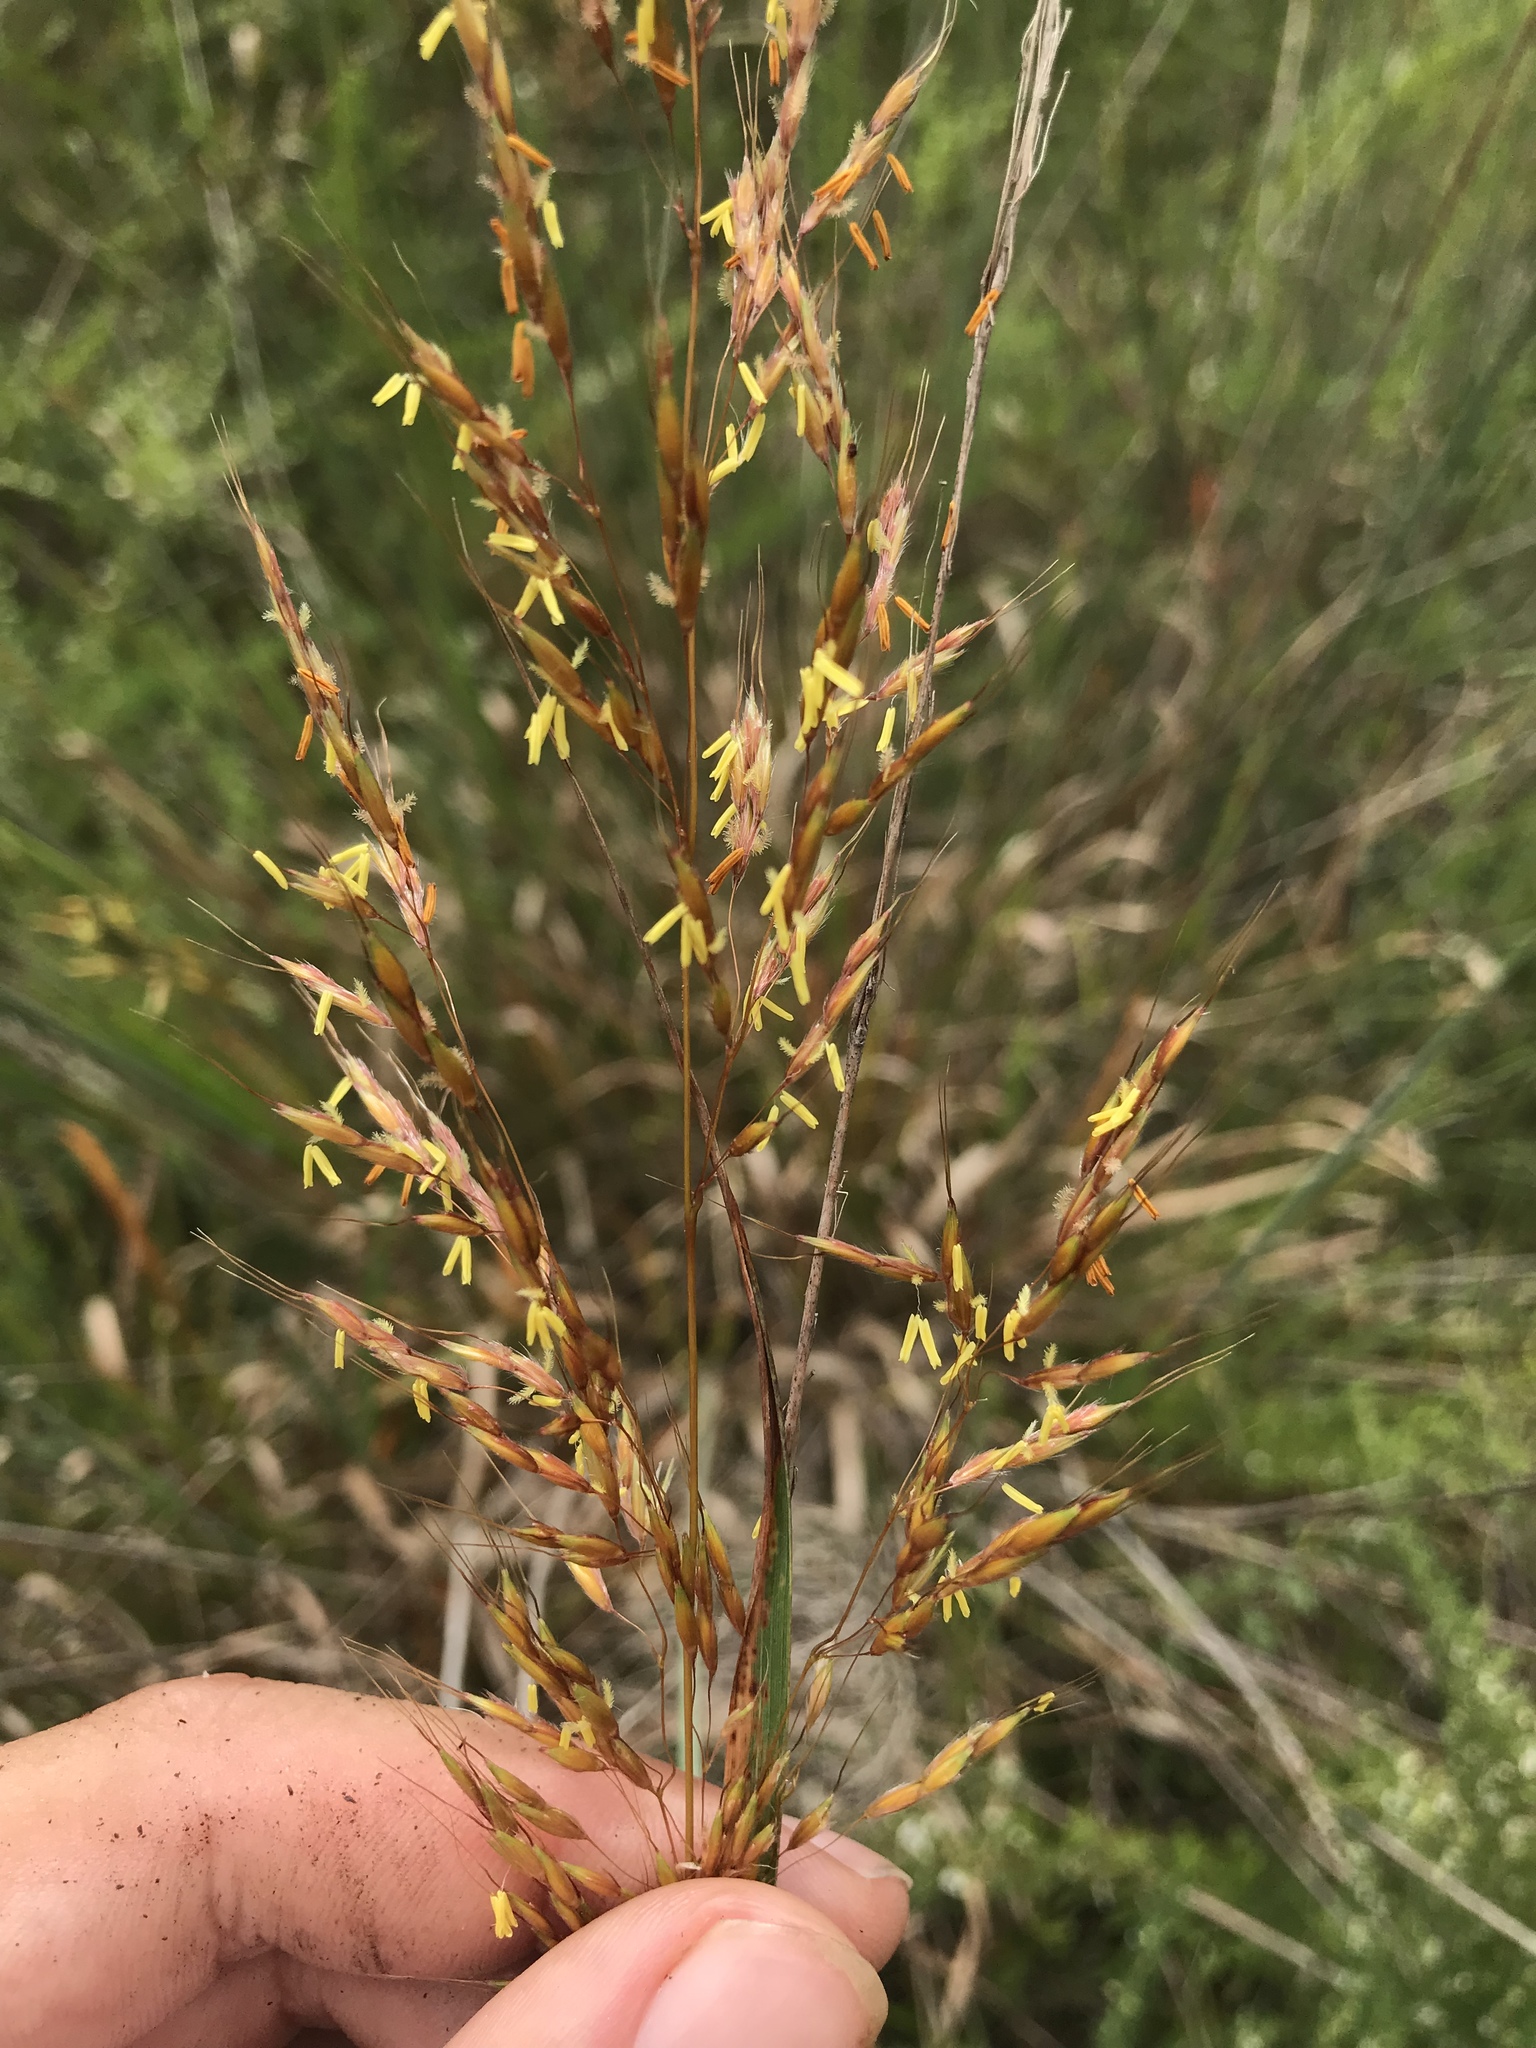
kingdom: Plantae
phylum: Tracheophyta
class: Liliopsida
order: Poales
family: Poaceae
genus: Sorghastrum
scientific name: Sorghastrum nutans
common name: Indian grass
